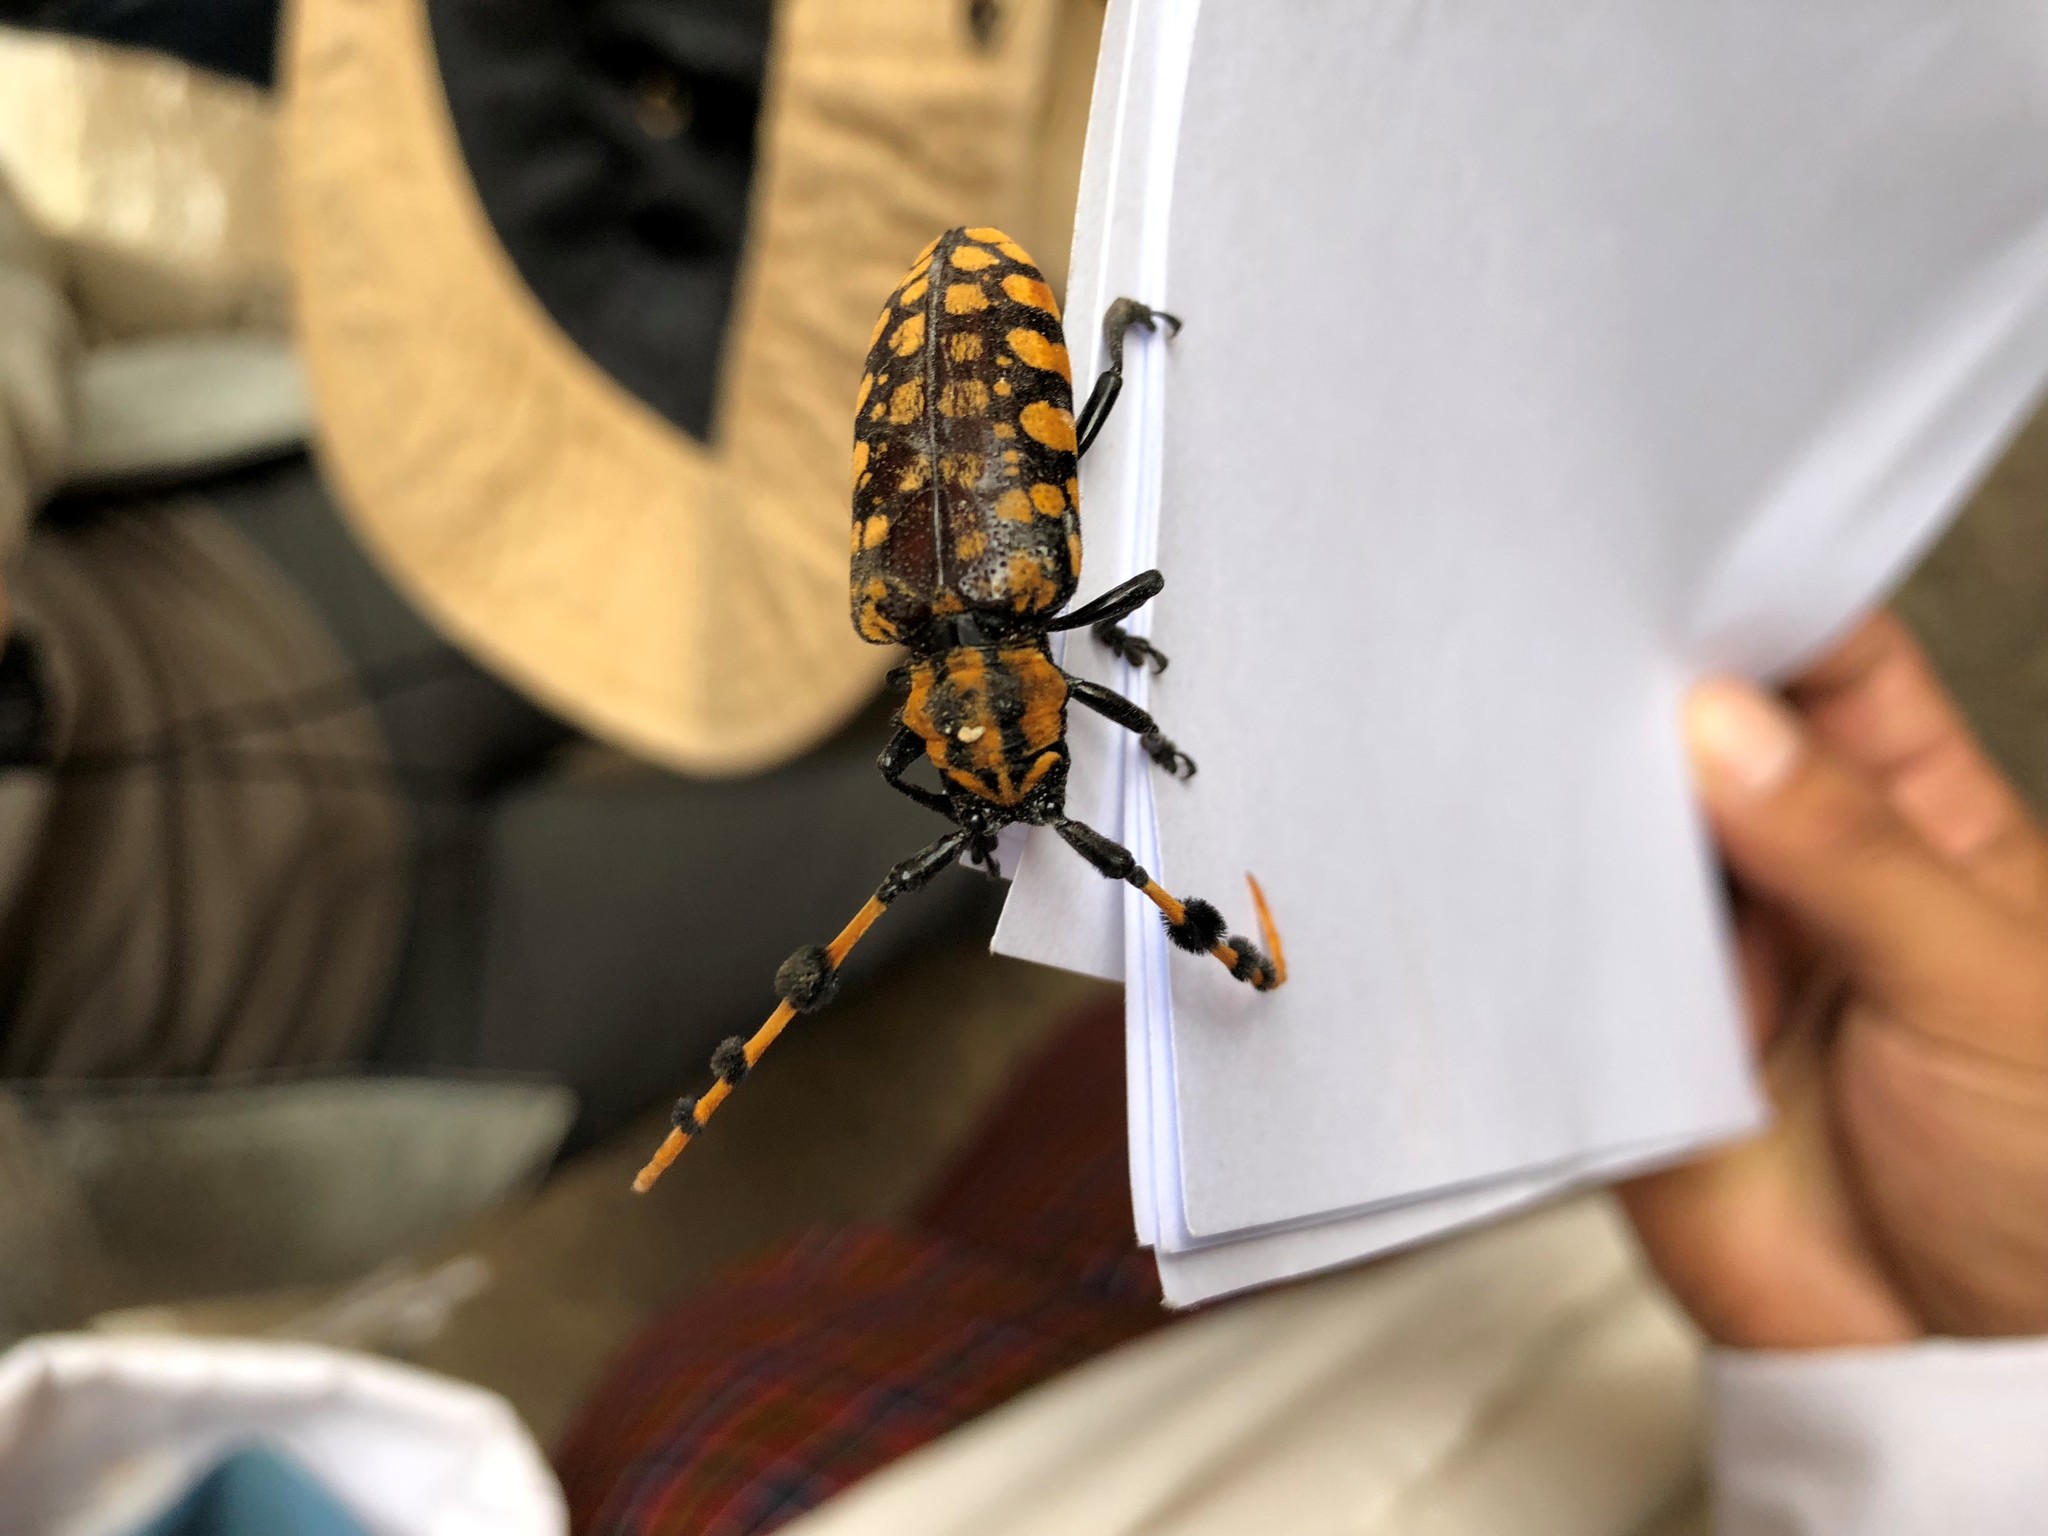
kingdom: Animalia
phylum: Arthropoda
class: Insecta
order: Coleoptera
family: Cerambycidae
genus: Aristobia
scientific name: Aristobia reticulator
